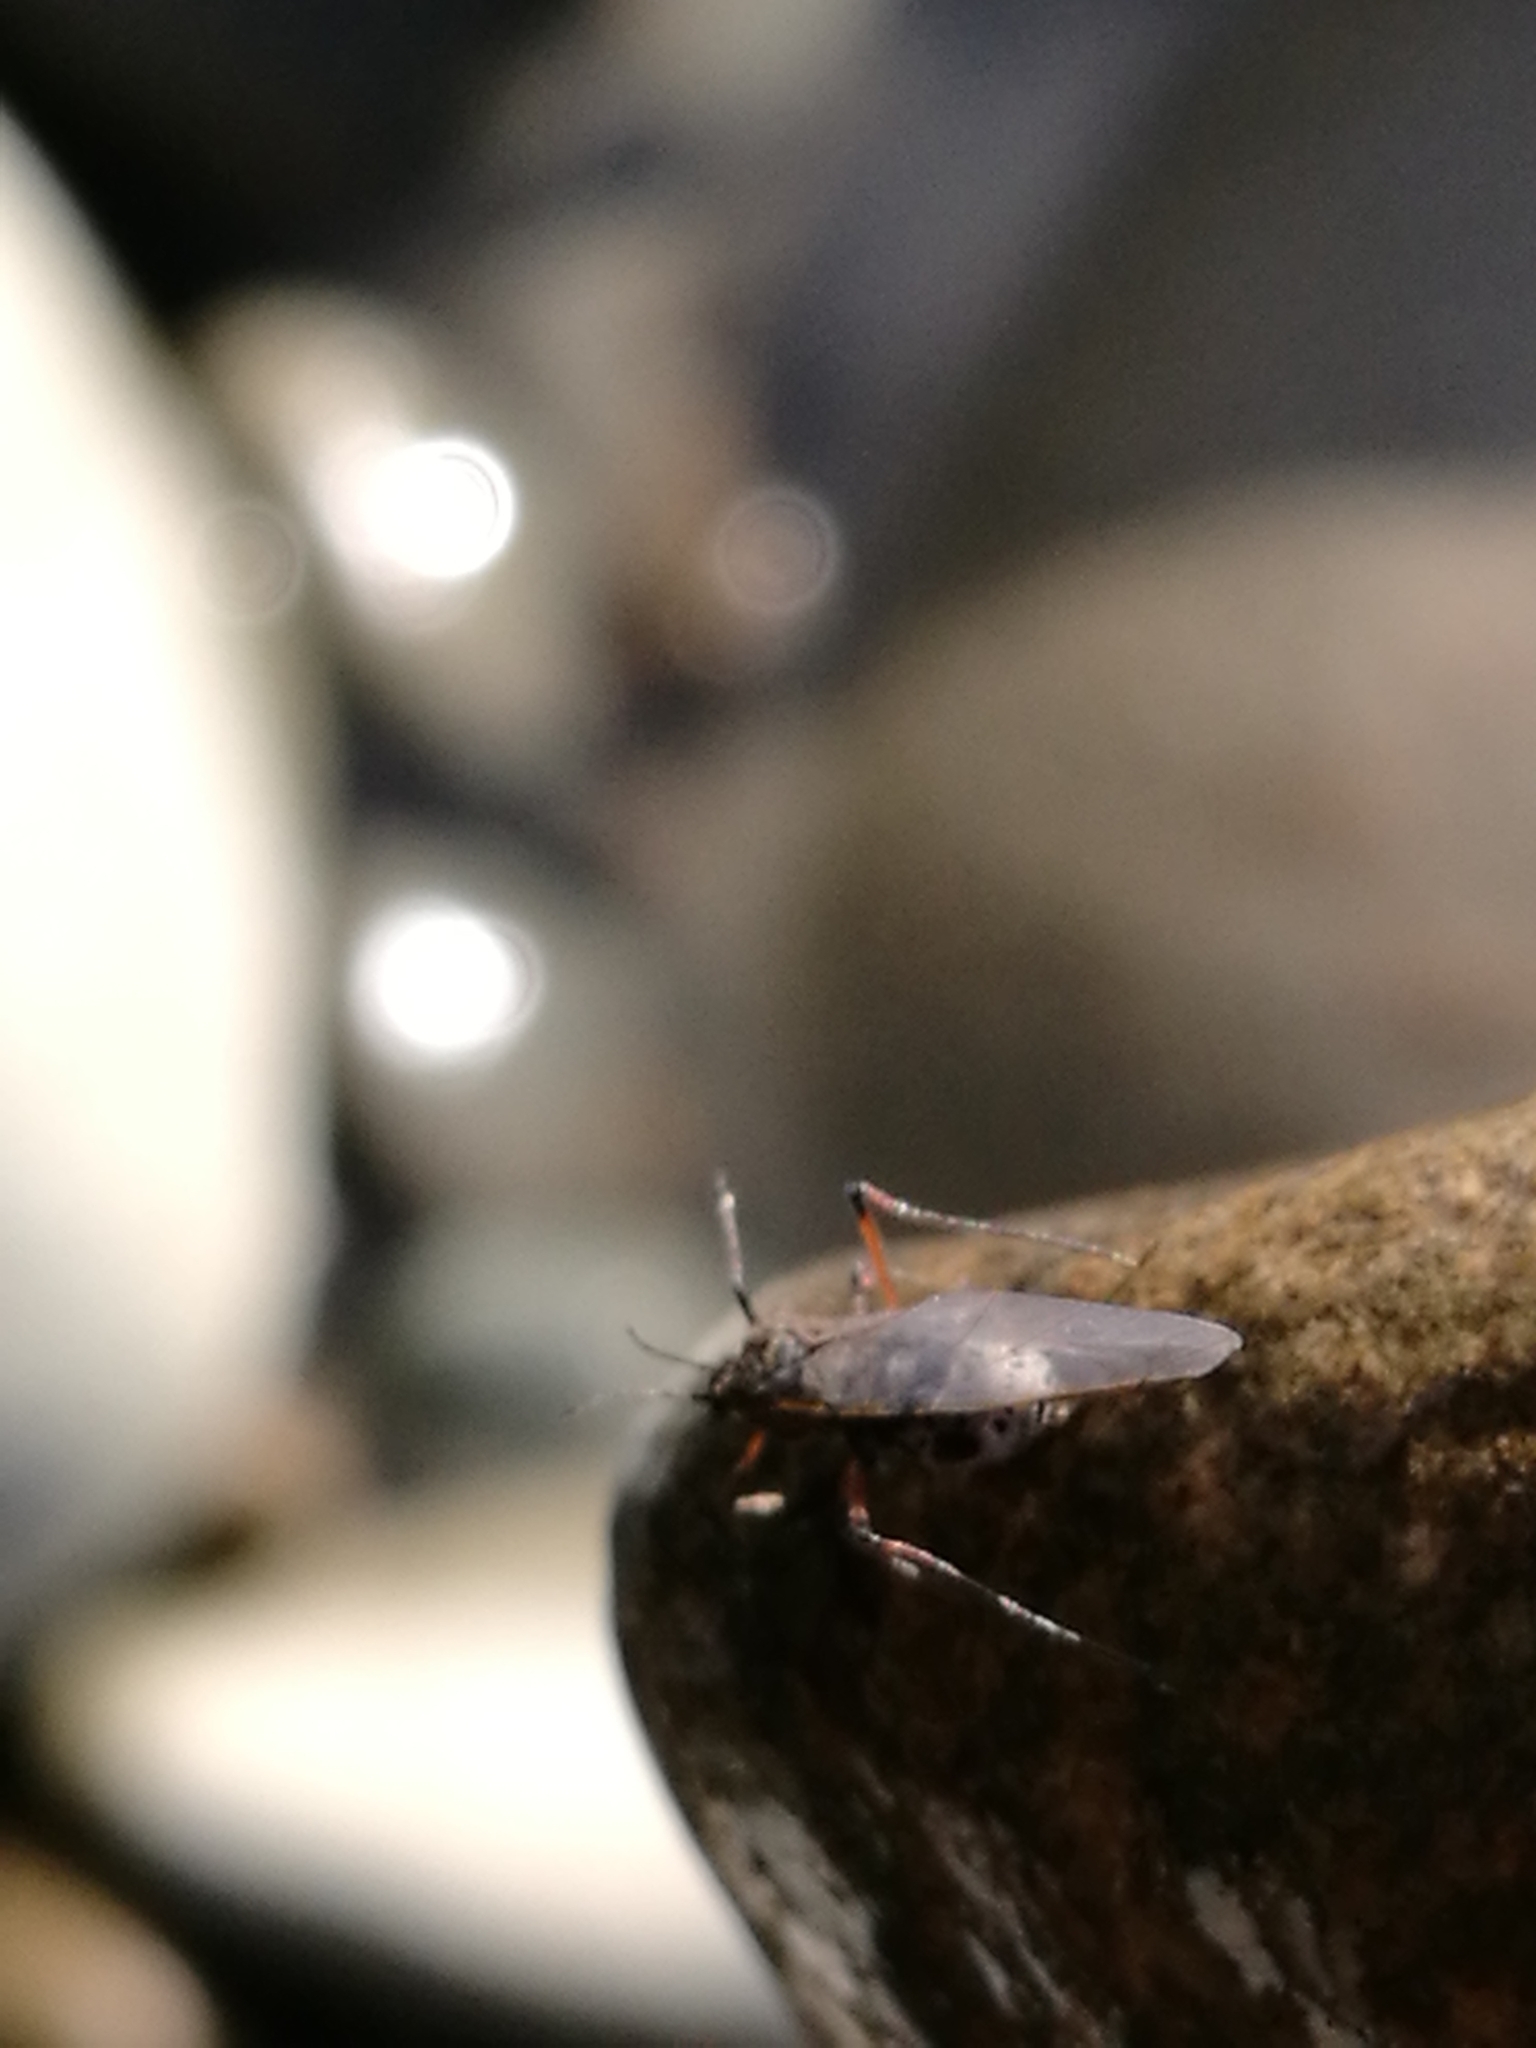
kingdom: Animalia
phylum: Arthropoda
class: Insecta
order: Hemiptera
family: Aphididae
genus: Tuberolachnus
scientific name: Tuberolachnus salignus
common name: Giant willow aphid
